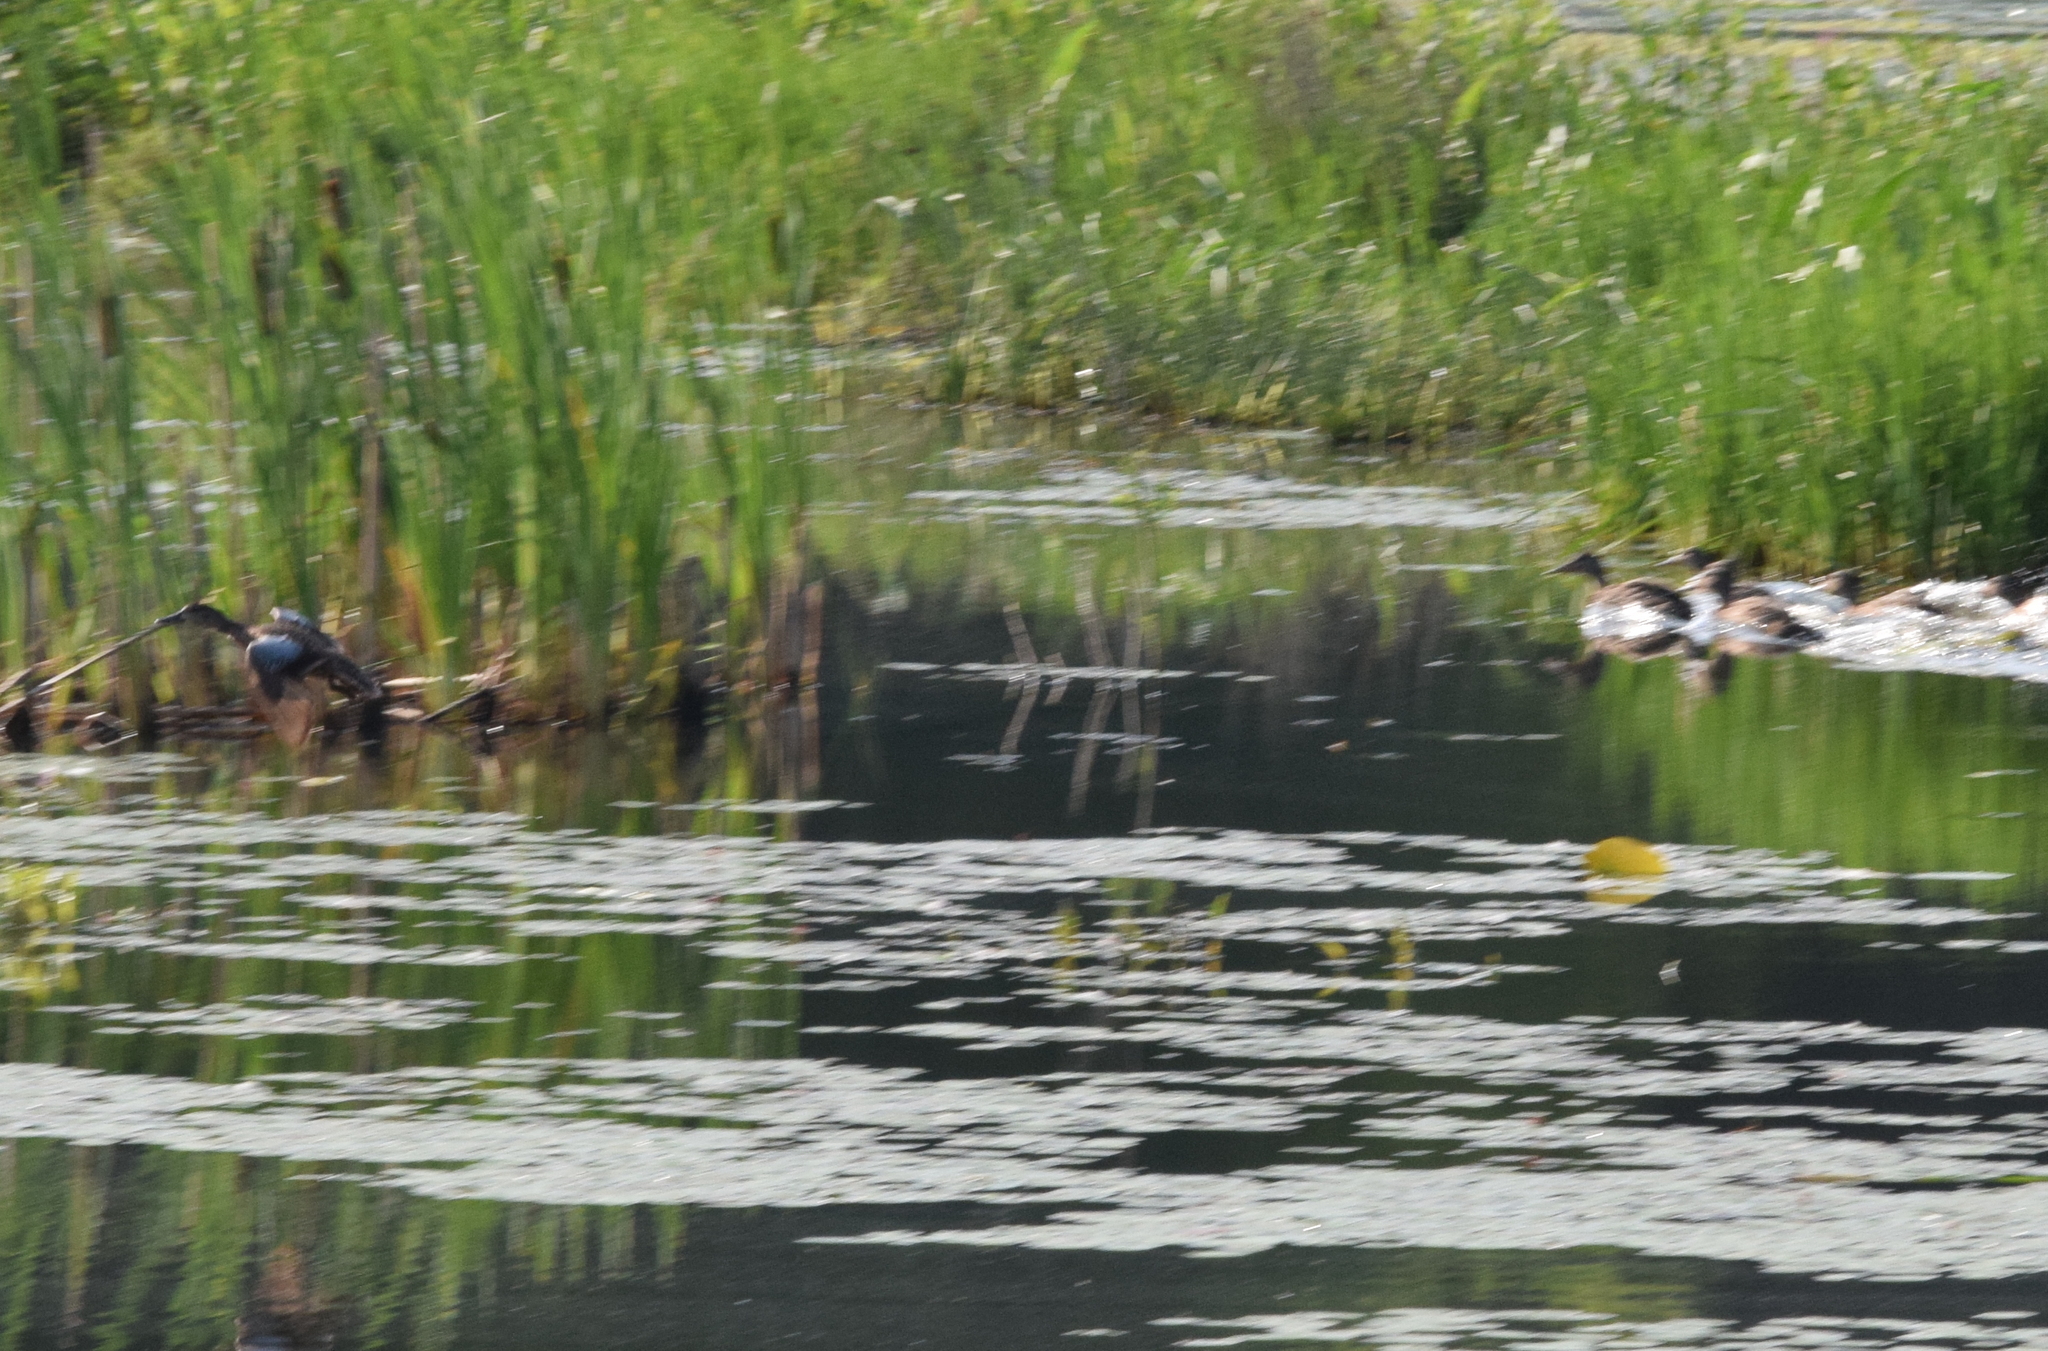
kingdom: Animalia
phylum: Chordata
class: Aves
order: Anseriformes
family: Anatidae
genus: Spatula
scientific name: Spatula discors
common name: Blue-winged teal
